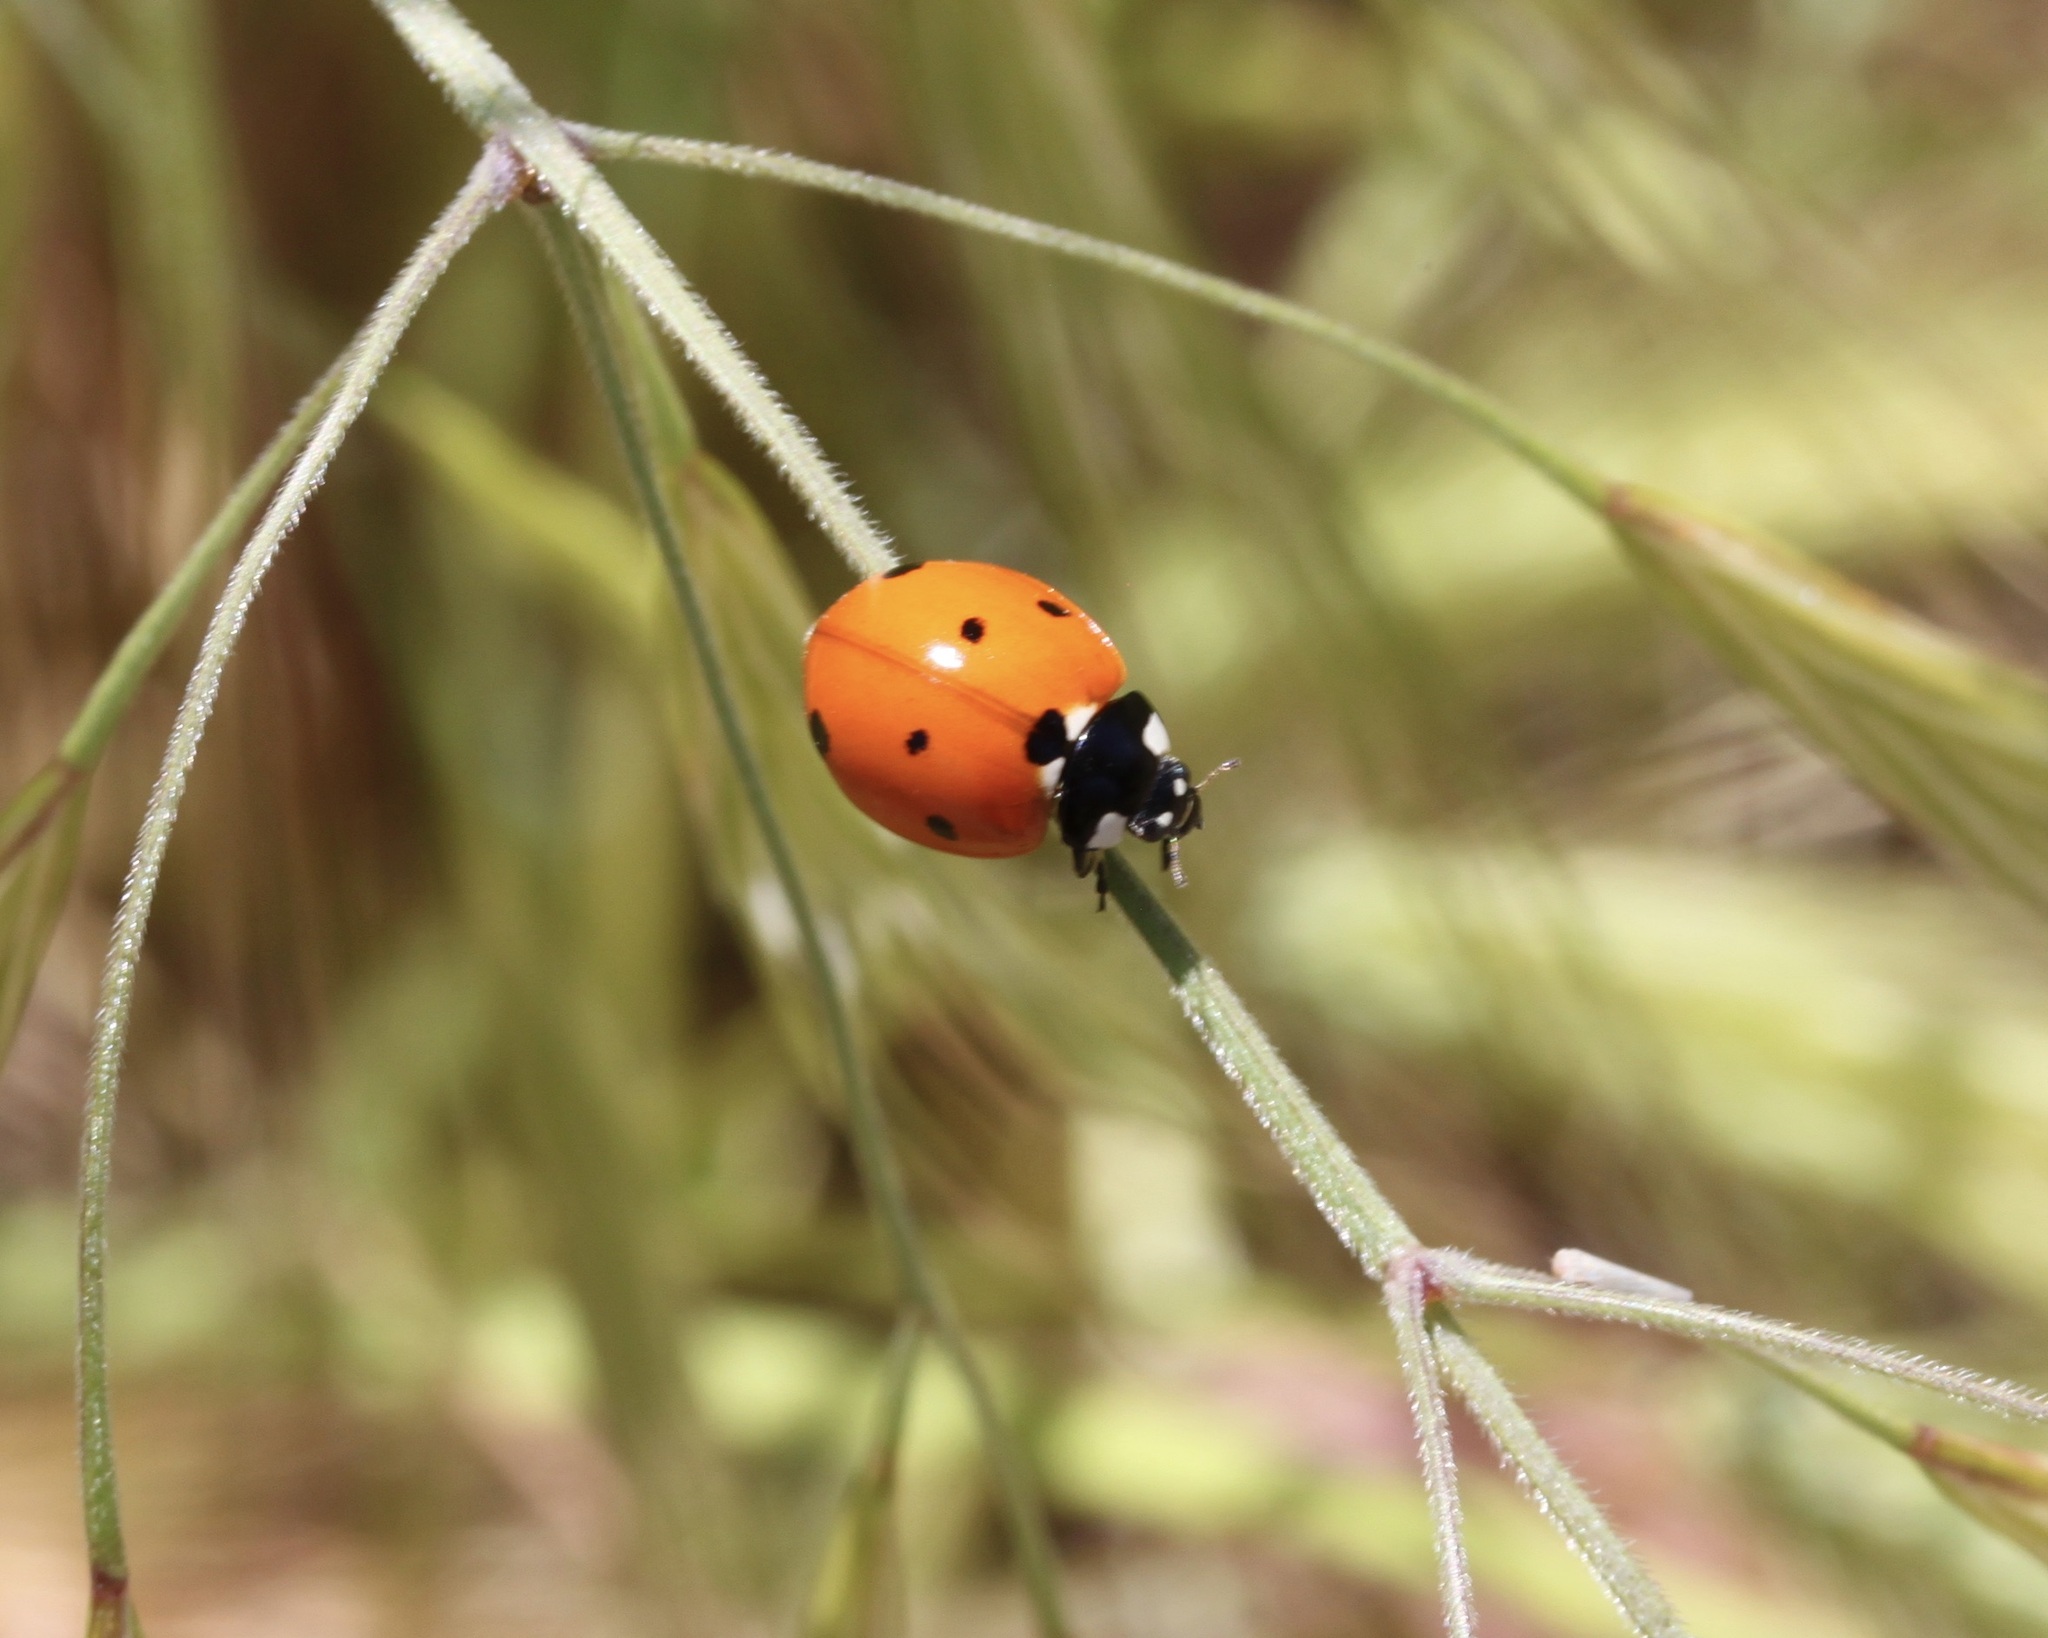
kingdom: Animalia
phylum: Arthropoda
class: Insecta
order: Coleoptera
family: Coccinellidae
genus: Coccinella
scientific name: Coccinella septempunctata
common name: Sevenspotted lady beetle
